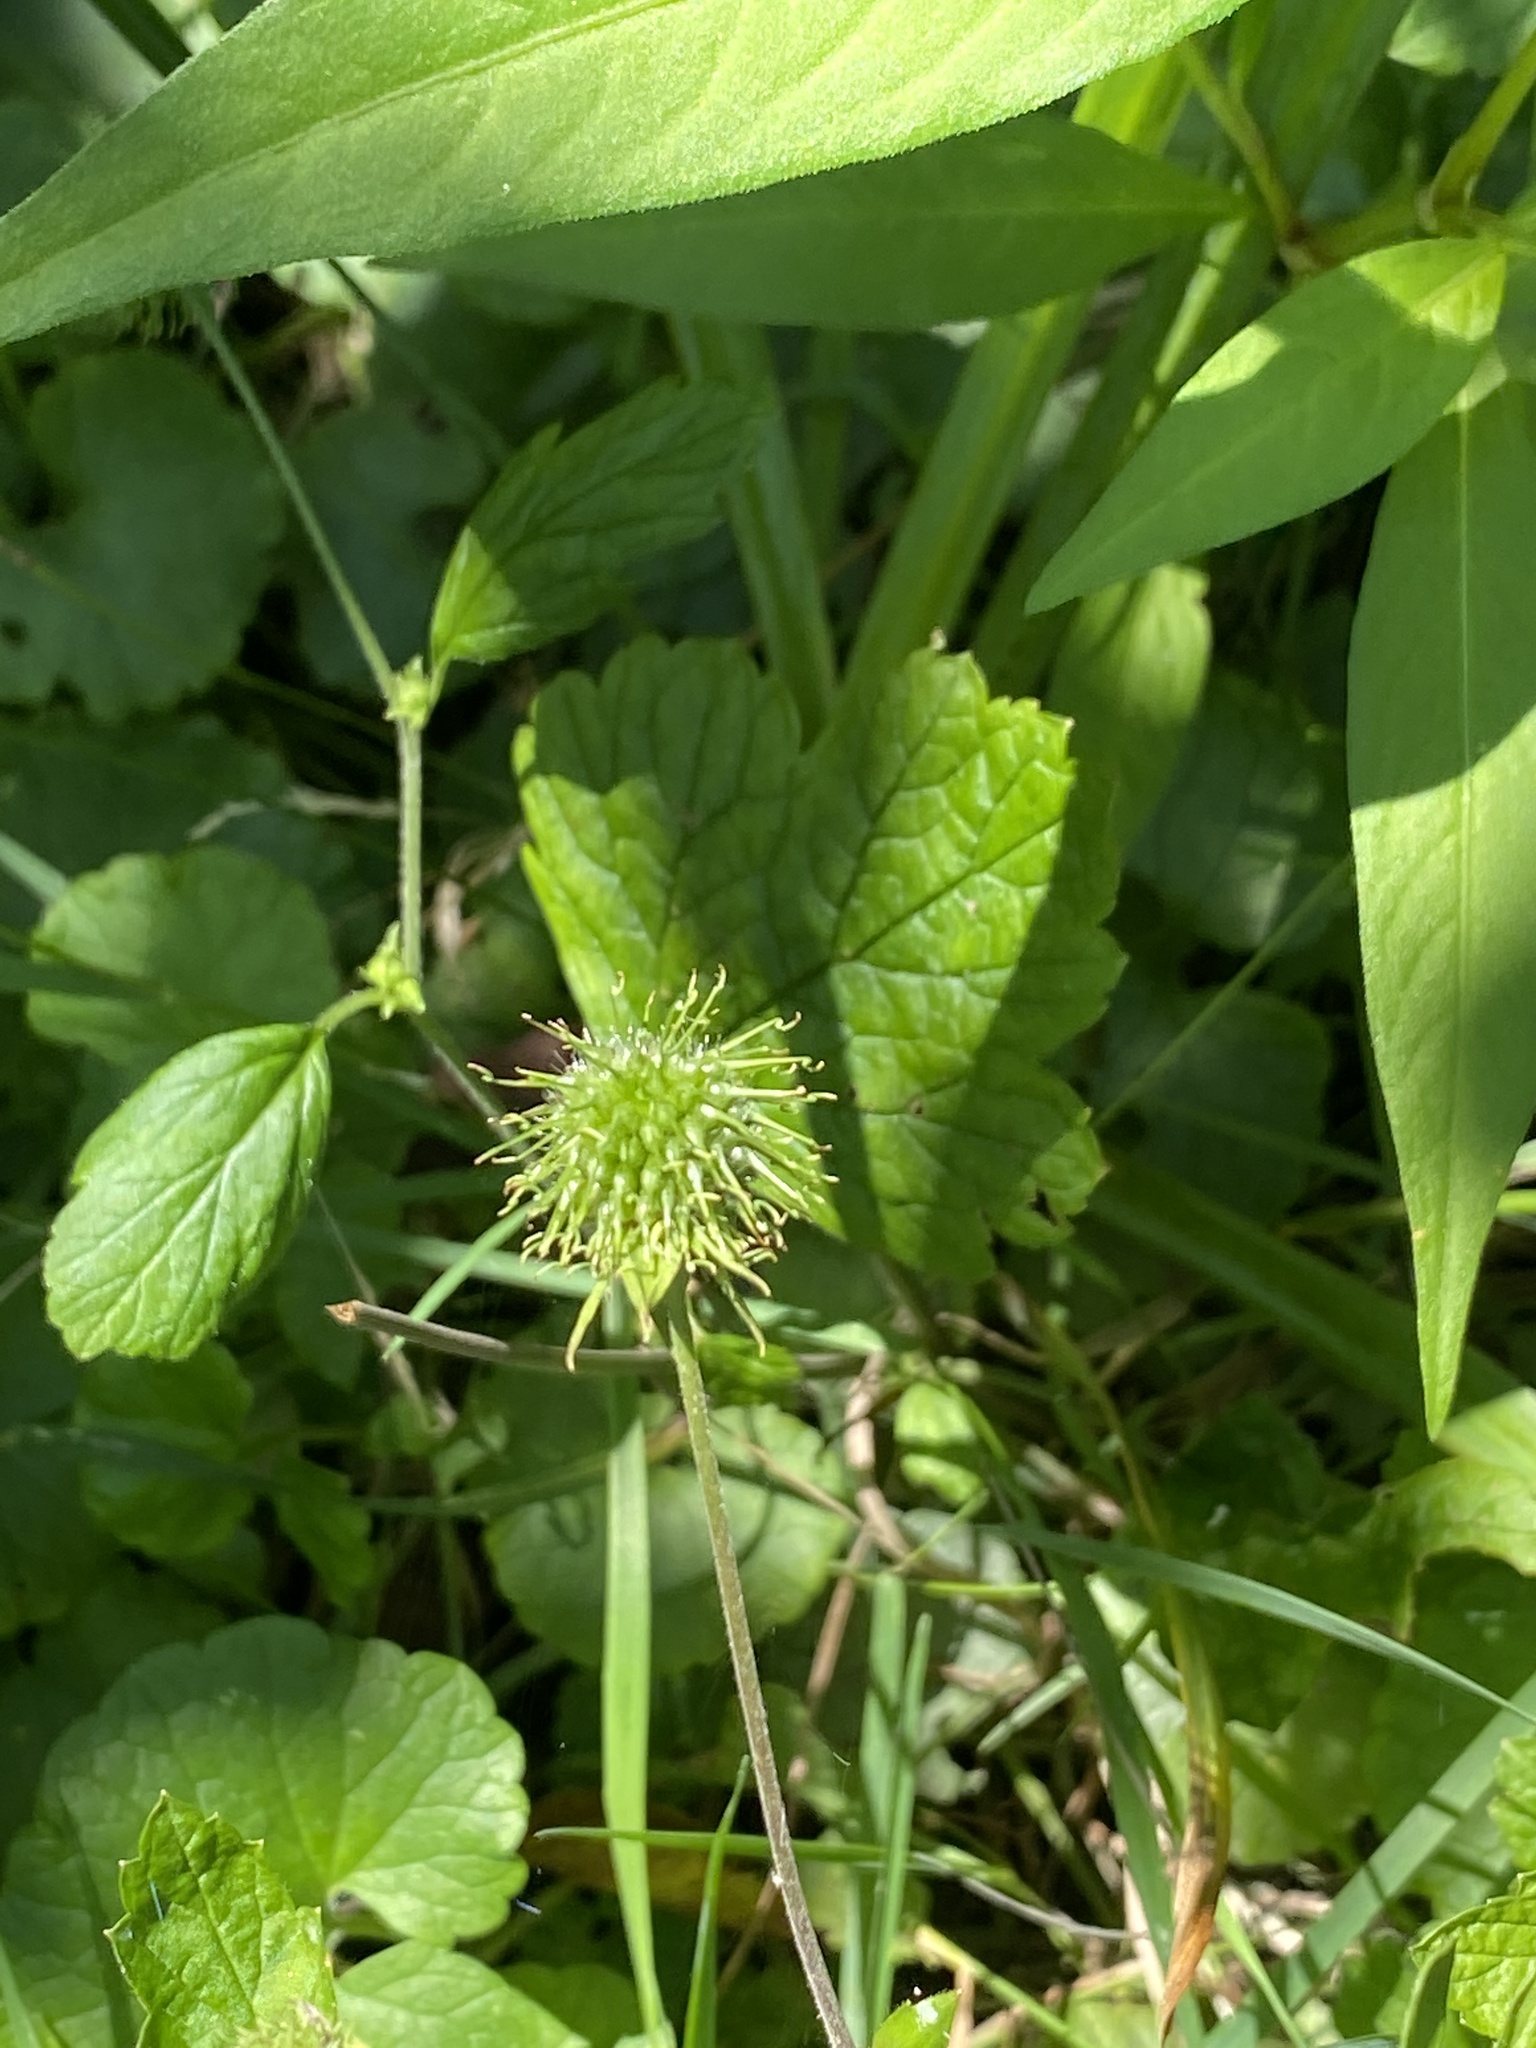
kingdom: Plantae
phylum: Tracheophyta
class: Magnoliopsida
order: Rosales
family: Rosaceae
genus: Geum
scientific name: Geum canadense
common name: White avens
